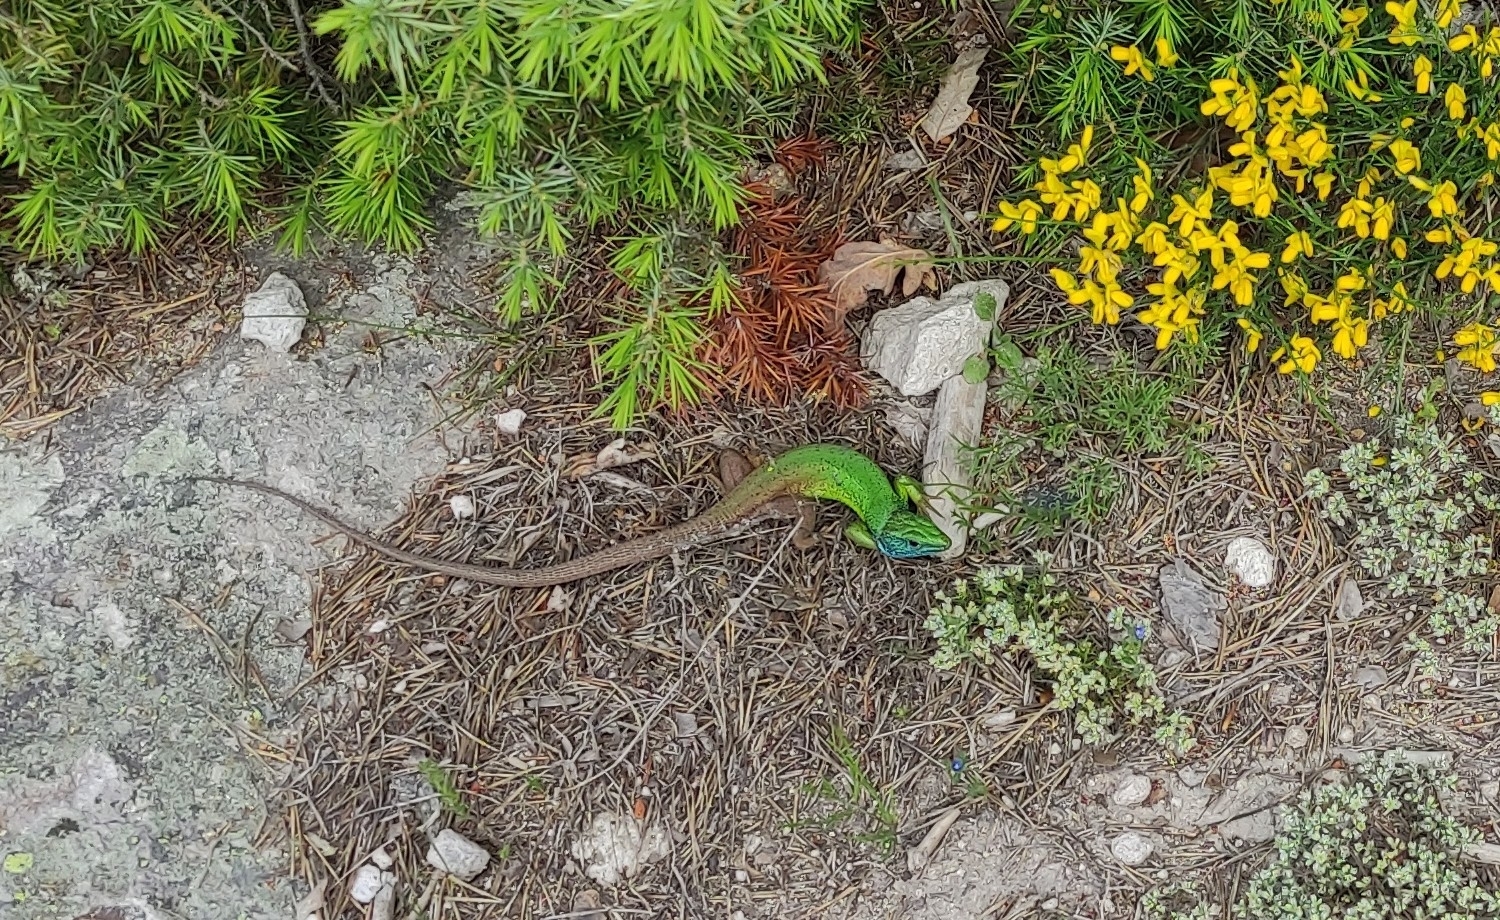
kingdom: Animalia
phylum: Chordata
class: Squamata
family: Lacertidae
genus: Lacerta
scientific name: Lacerta viridis
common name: European green lizard
